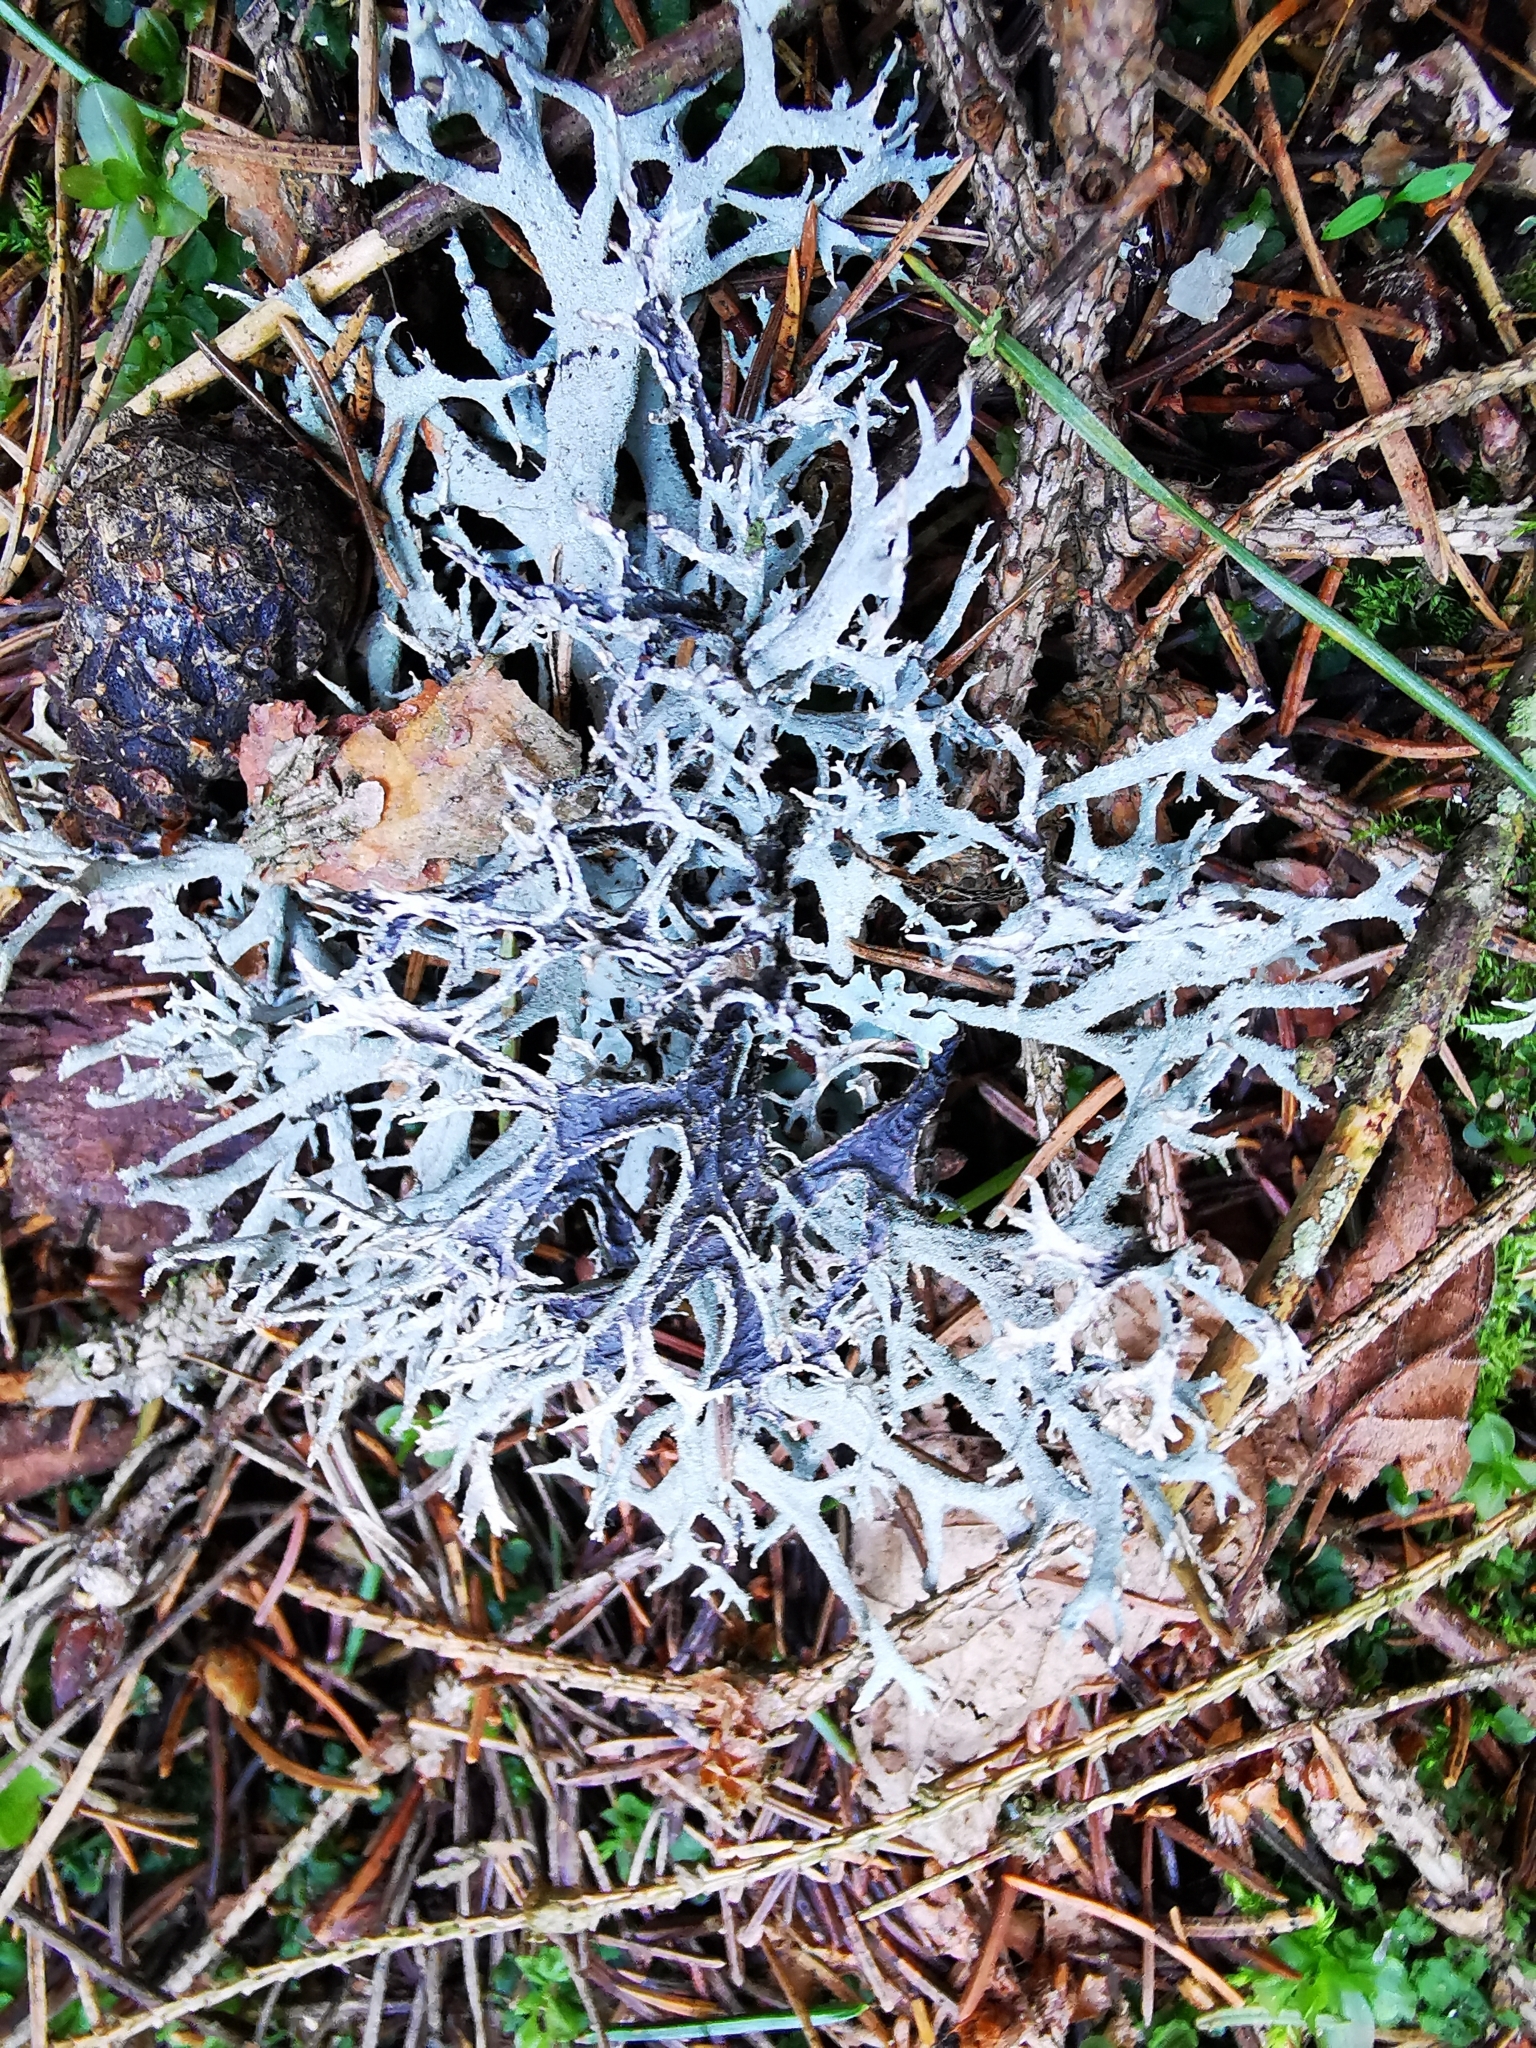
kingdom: Fungi
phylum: Ascomycota
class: Lecanoromycetes
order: Lecanorales
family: Parmeliaceae
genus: Pseudevernia
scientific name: Pseudevernia furfuracea
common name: Tree moss
